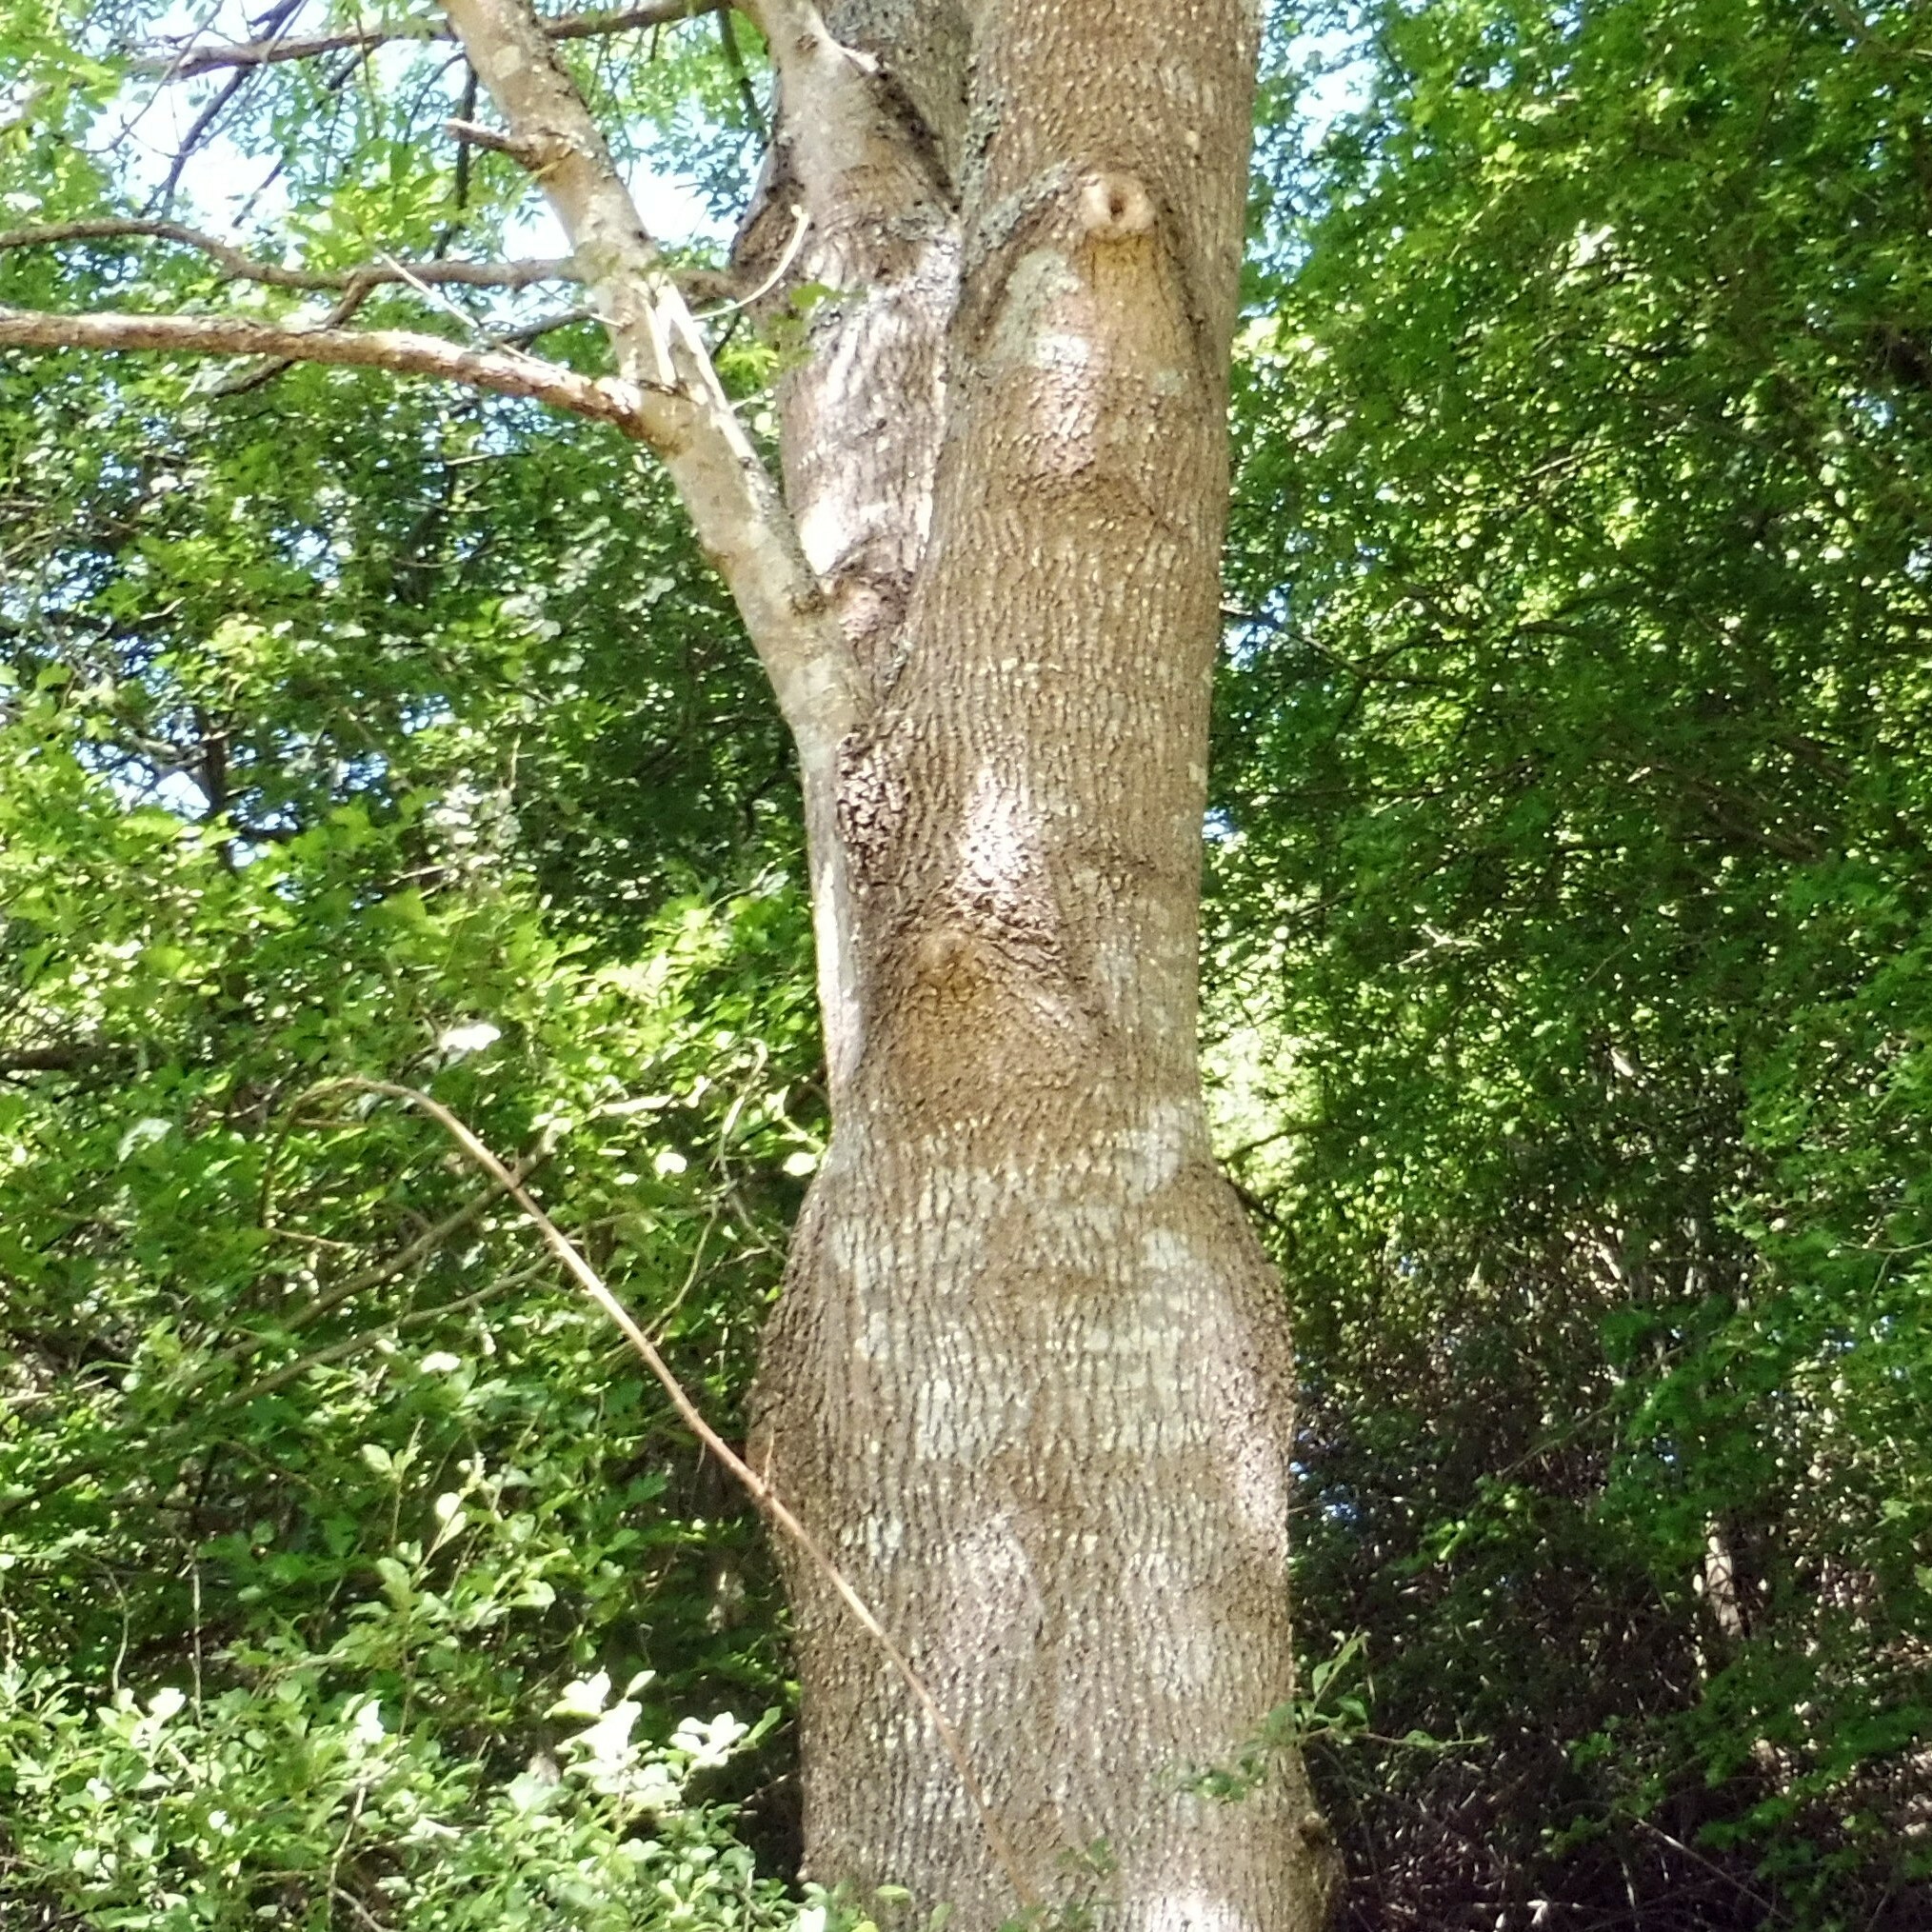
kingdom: Plantae
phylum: Tracheophyta
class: Magnoliopsida
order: Lamiales
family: Oleaceae
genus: Fraxinus
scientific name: Fraxinus excelsior
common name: European ash
